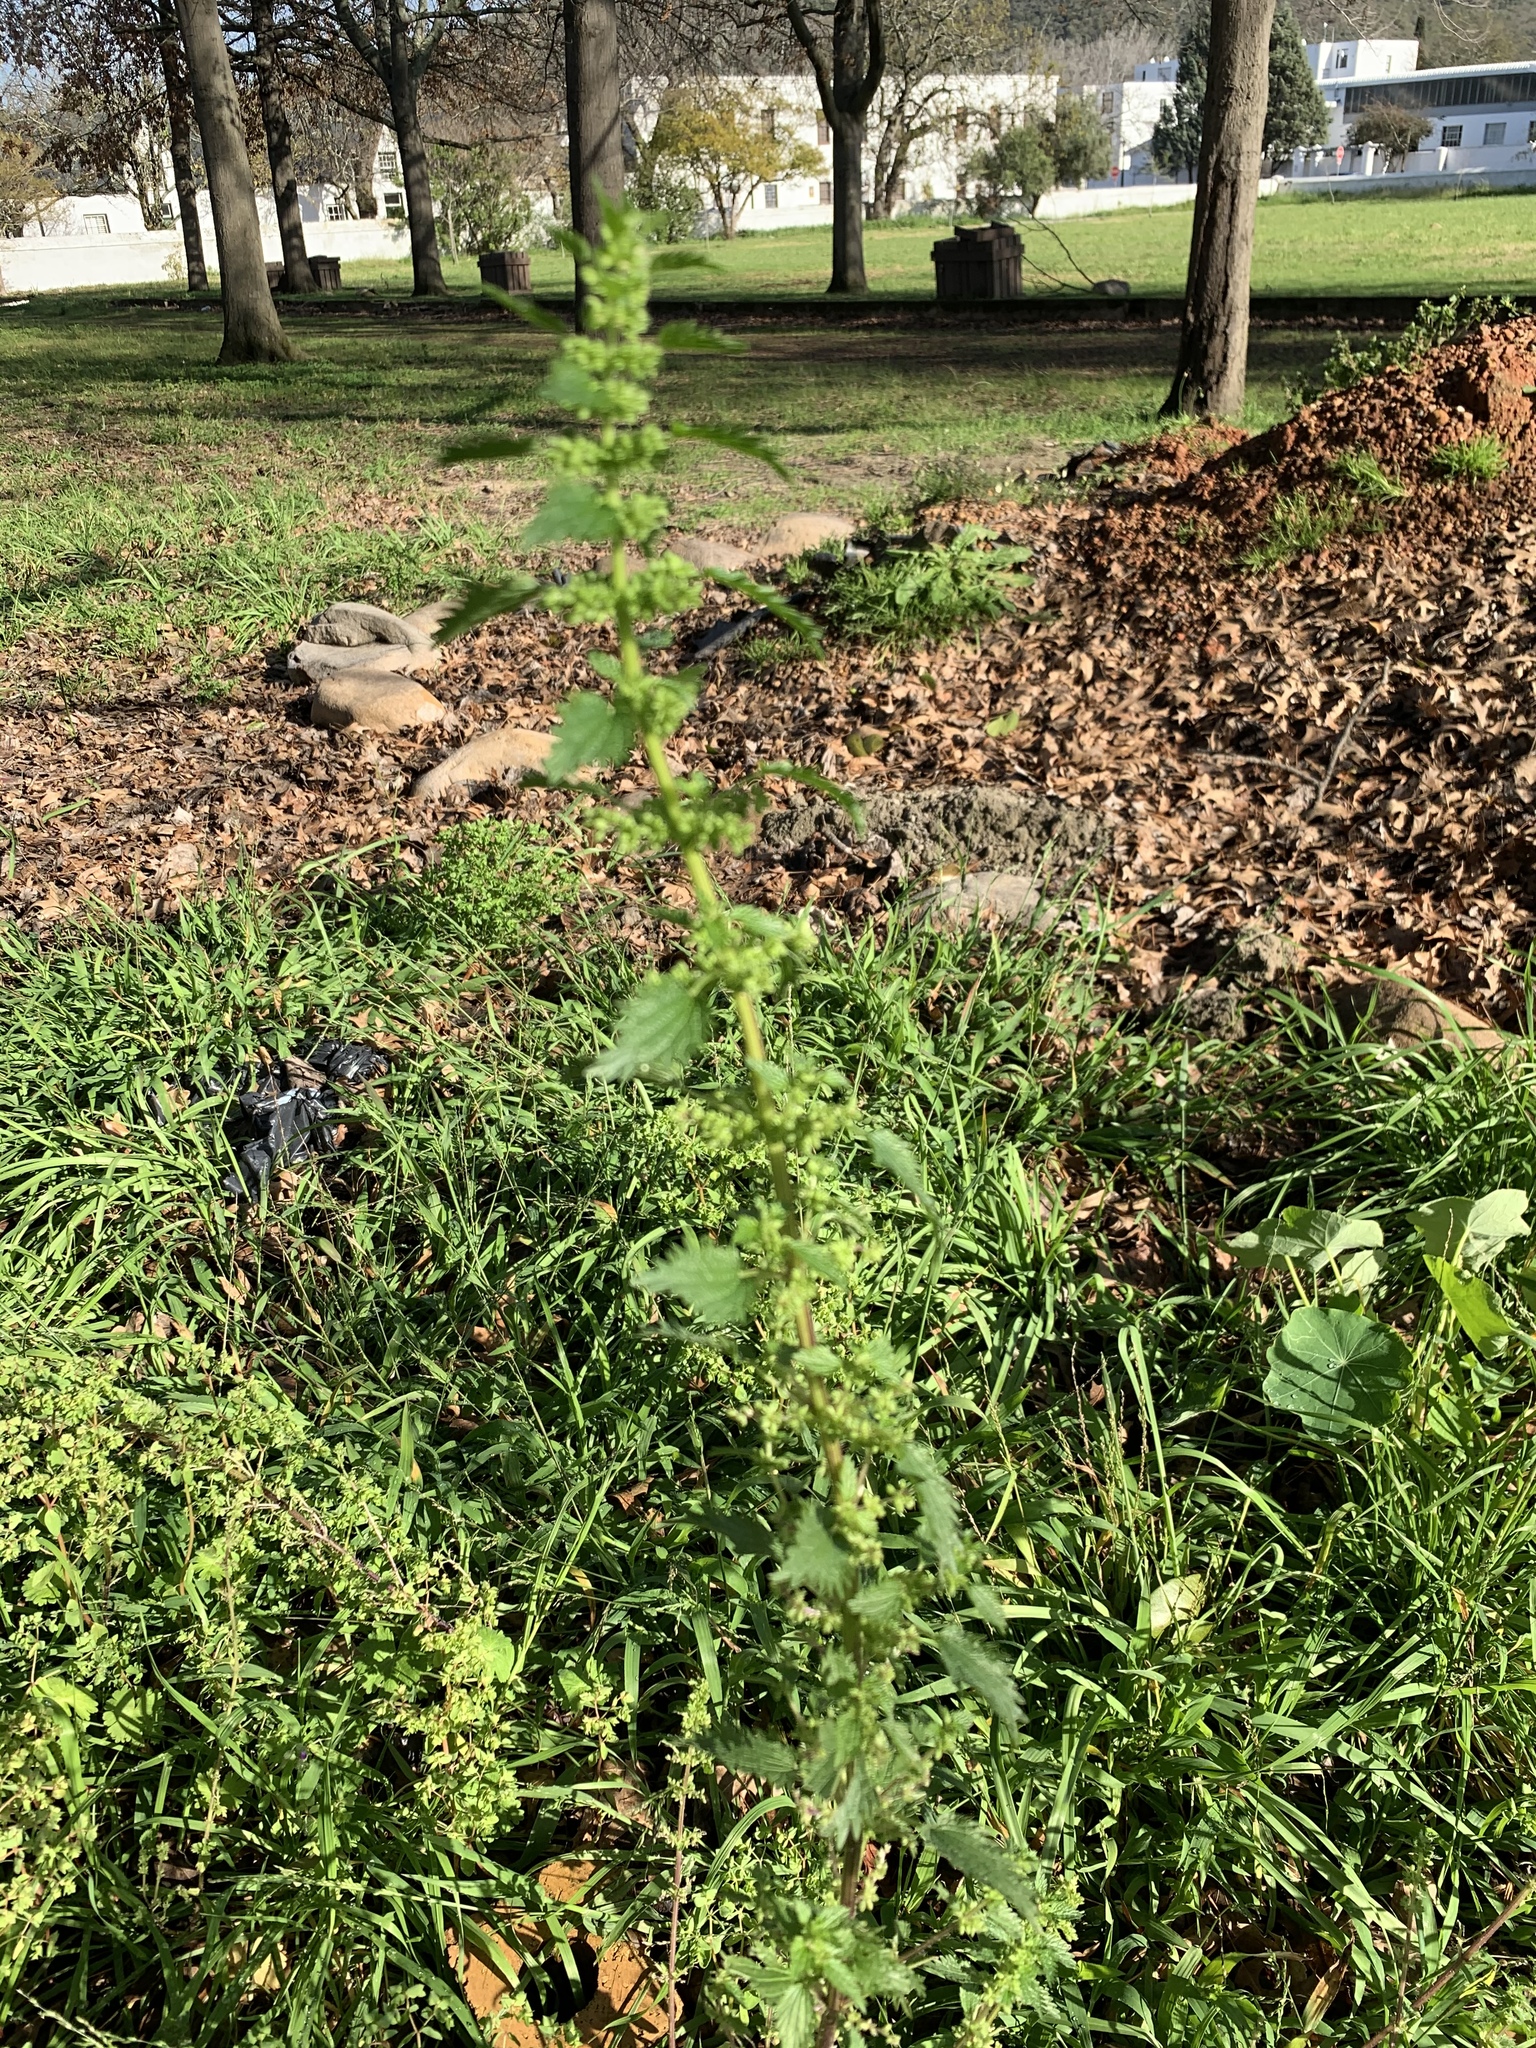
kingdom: Plantae
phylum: Tracheophyta
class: Magnoliopsida
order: Rosales
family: Urticaceae
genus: Urtica
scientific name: Urtica urens
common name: Dwarf nettle
